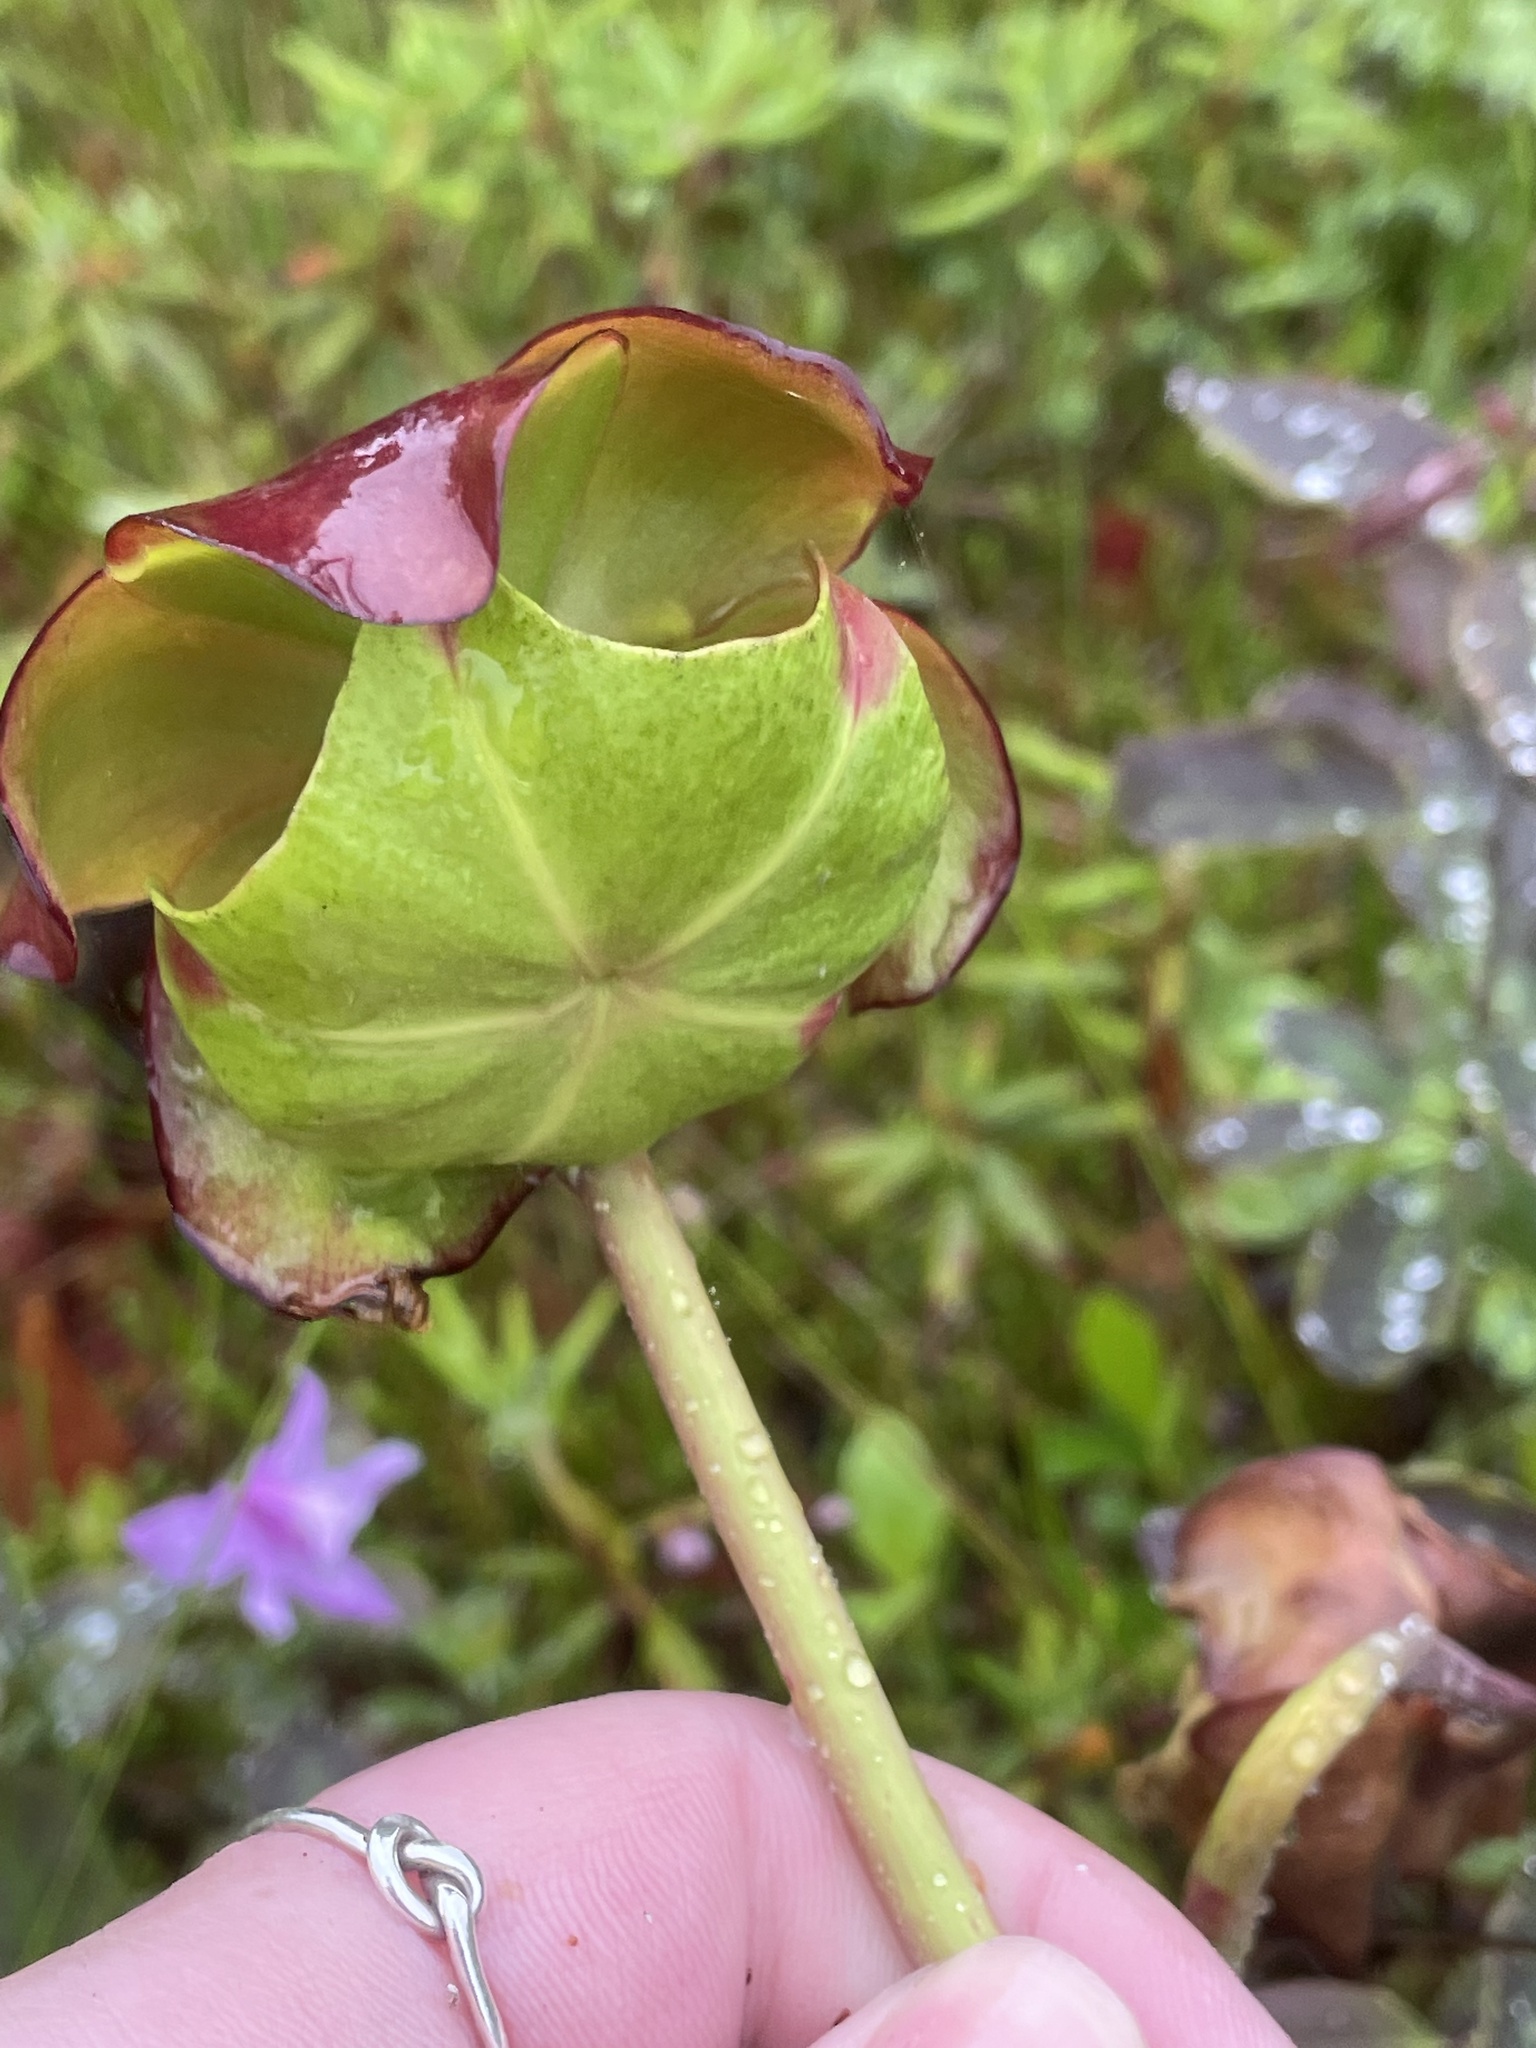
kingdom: Plantae
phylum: Tracheophyta
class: Magnoliopsida
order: Ericales
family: Sarraceniaceae
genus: Sarracenia
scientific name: Sarracenia purpurea
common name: Pitcherplant
